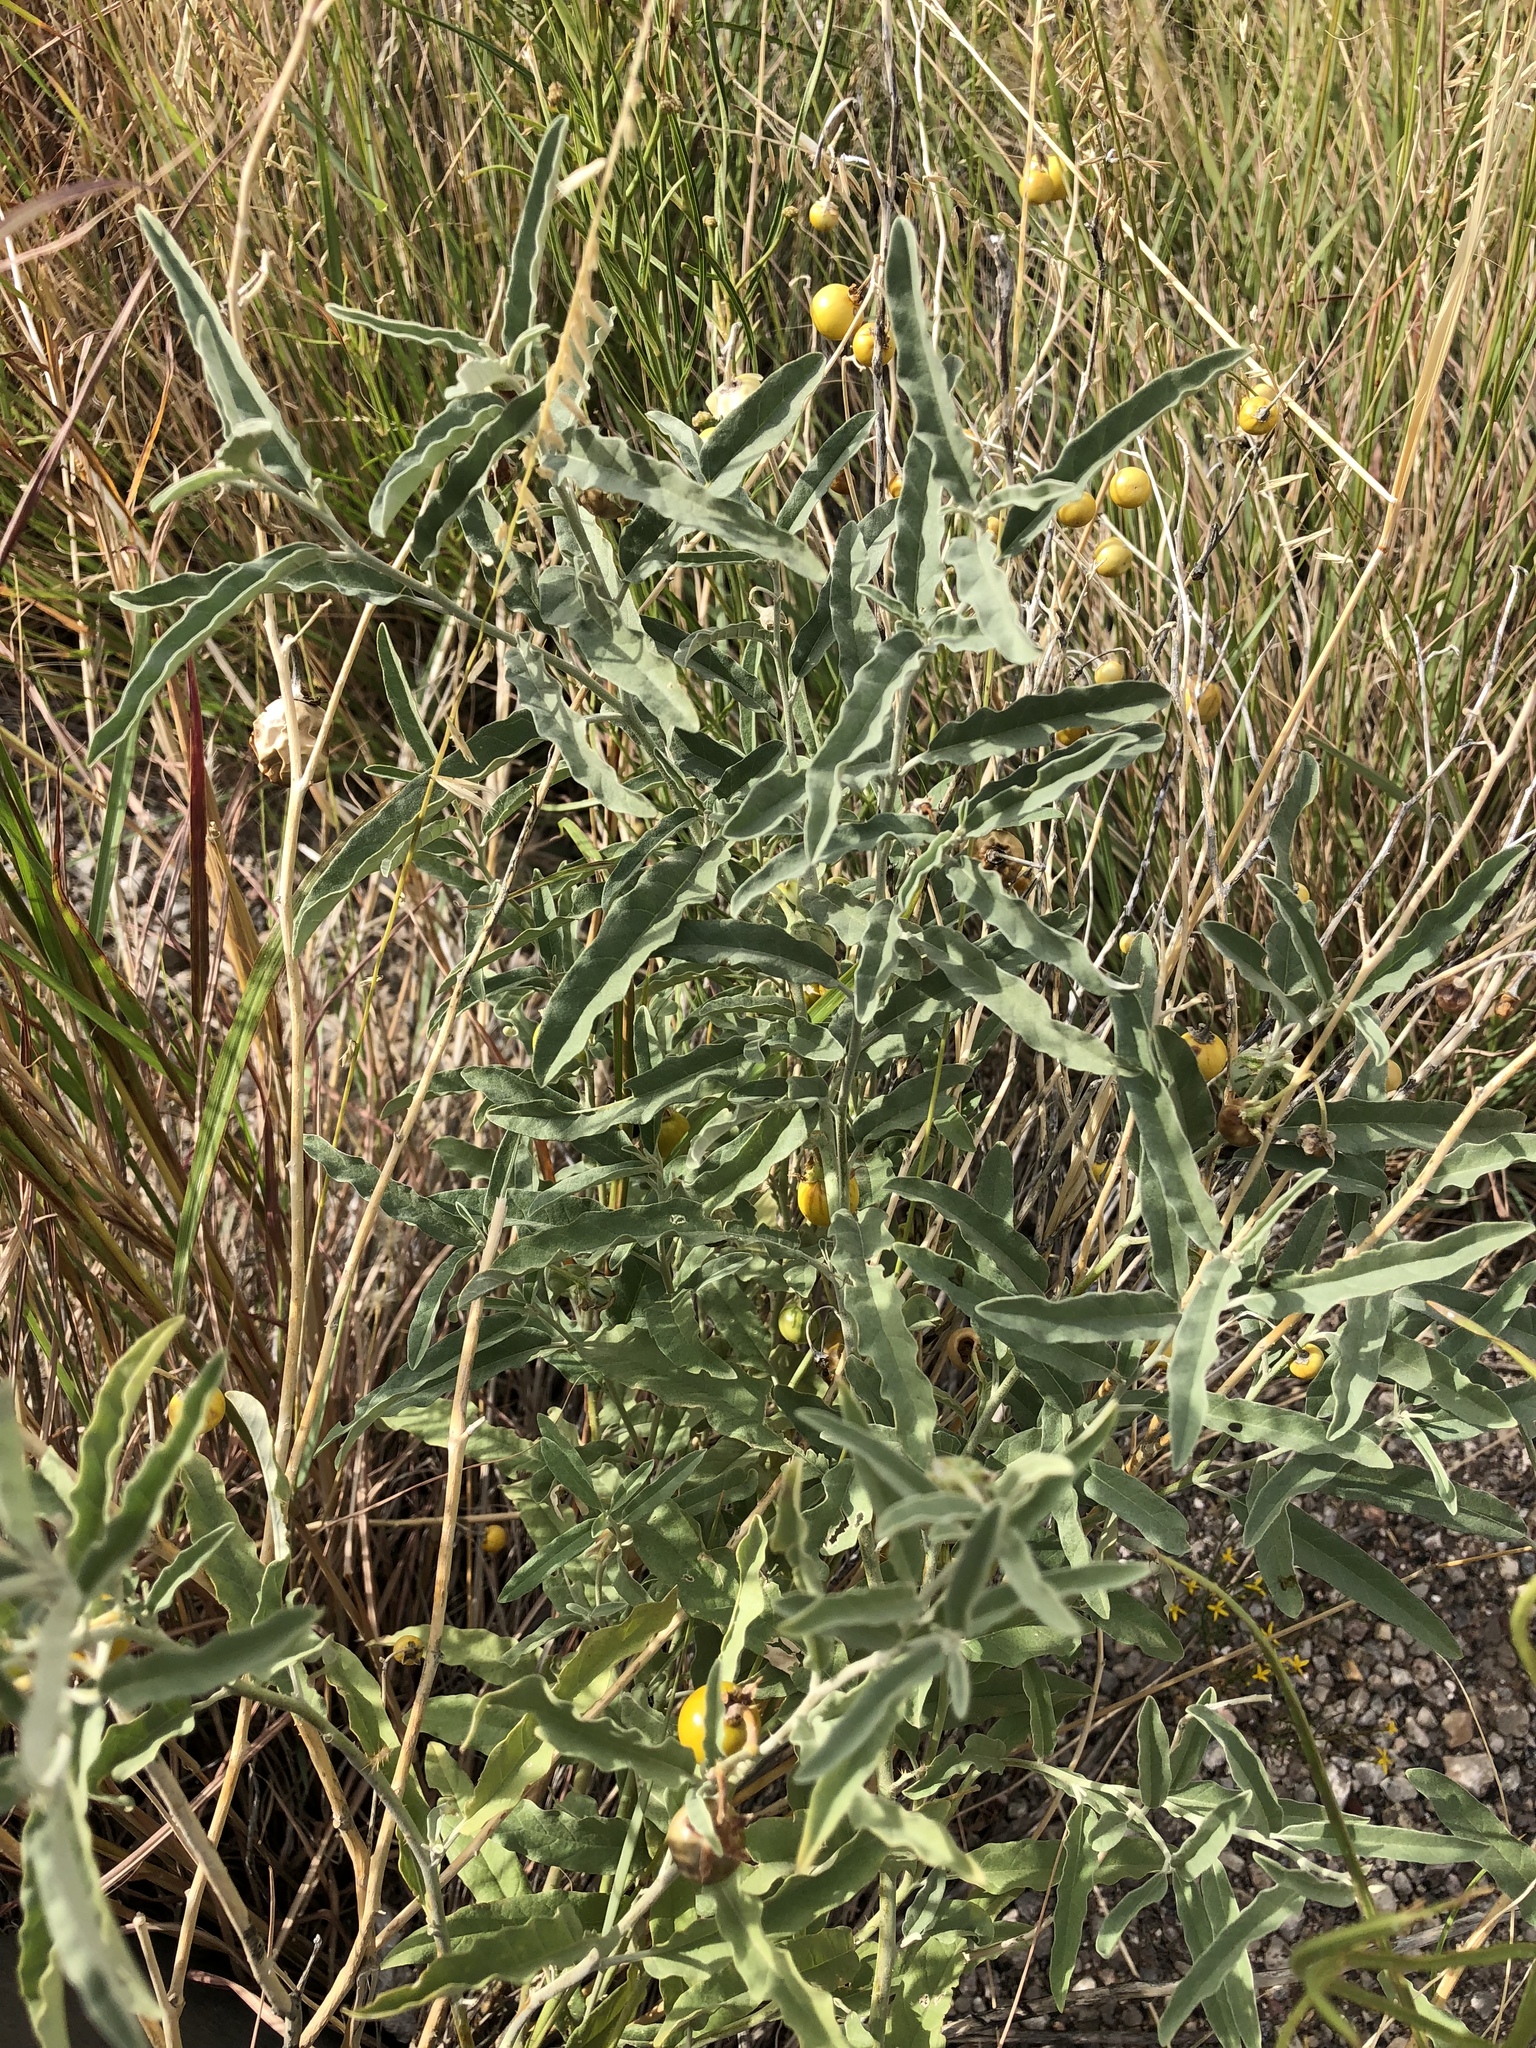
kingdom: Plantae
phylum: Tracheophyta
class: Magnoliopsida
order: Solanales
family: Solanaceae
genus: Solanum
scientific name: Solanum elaeagnifolium
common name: Silverleaf nightshade
